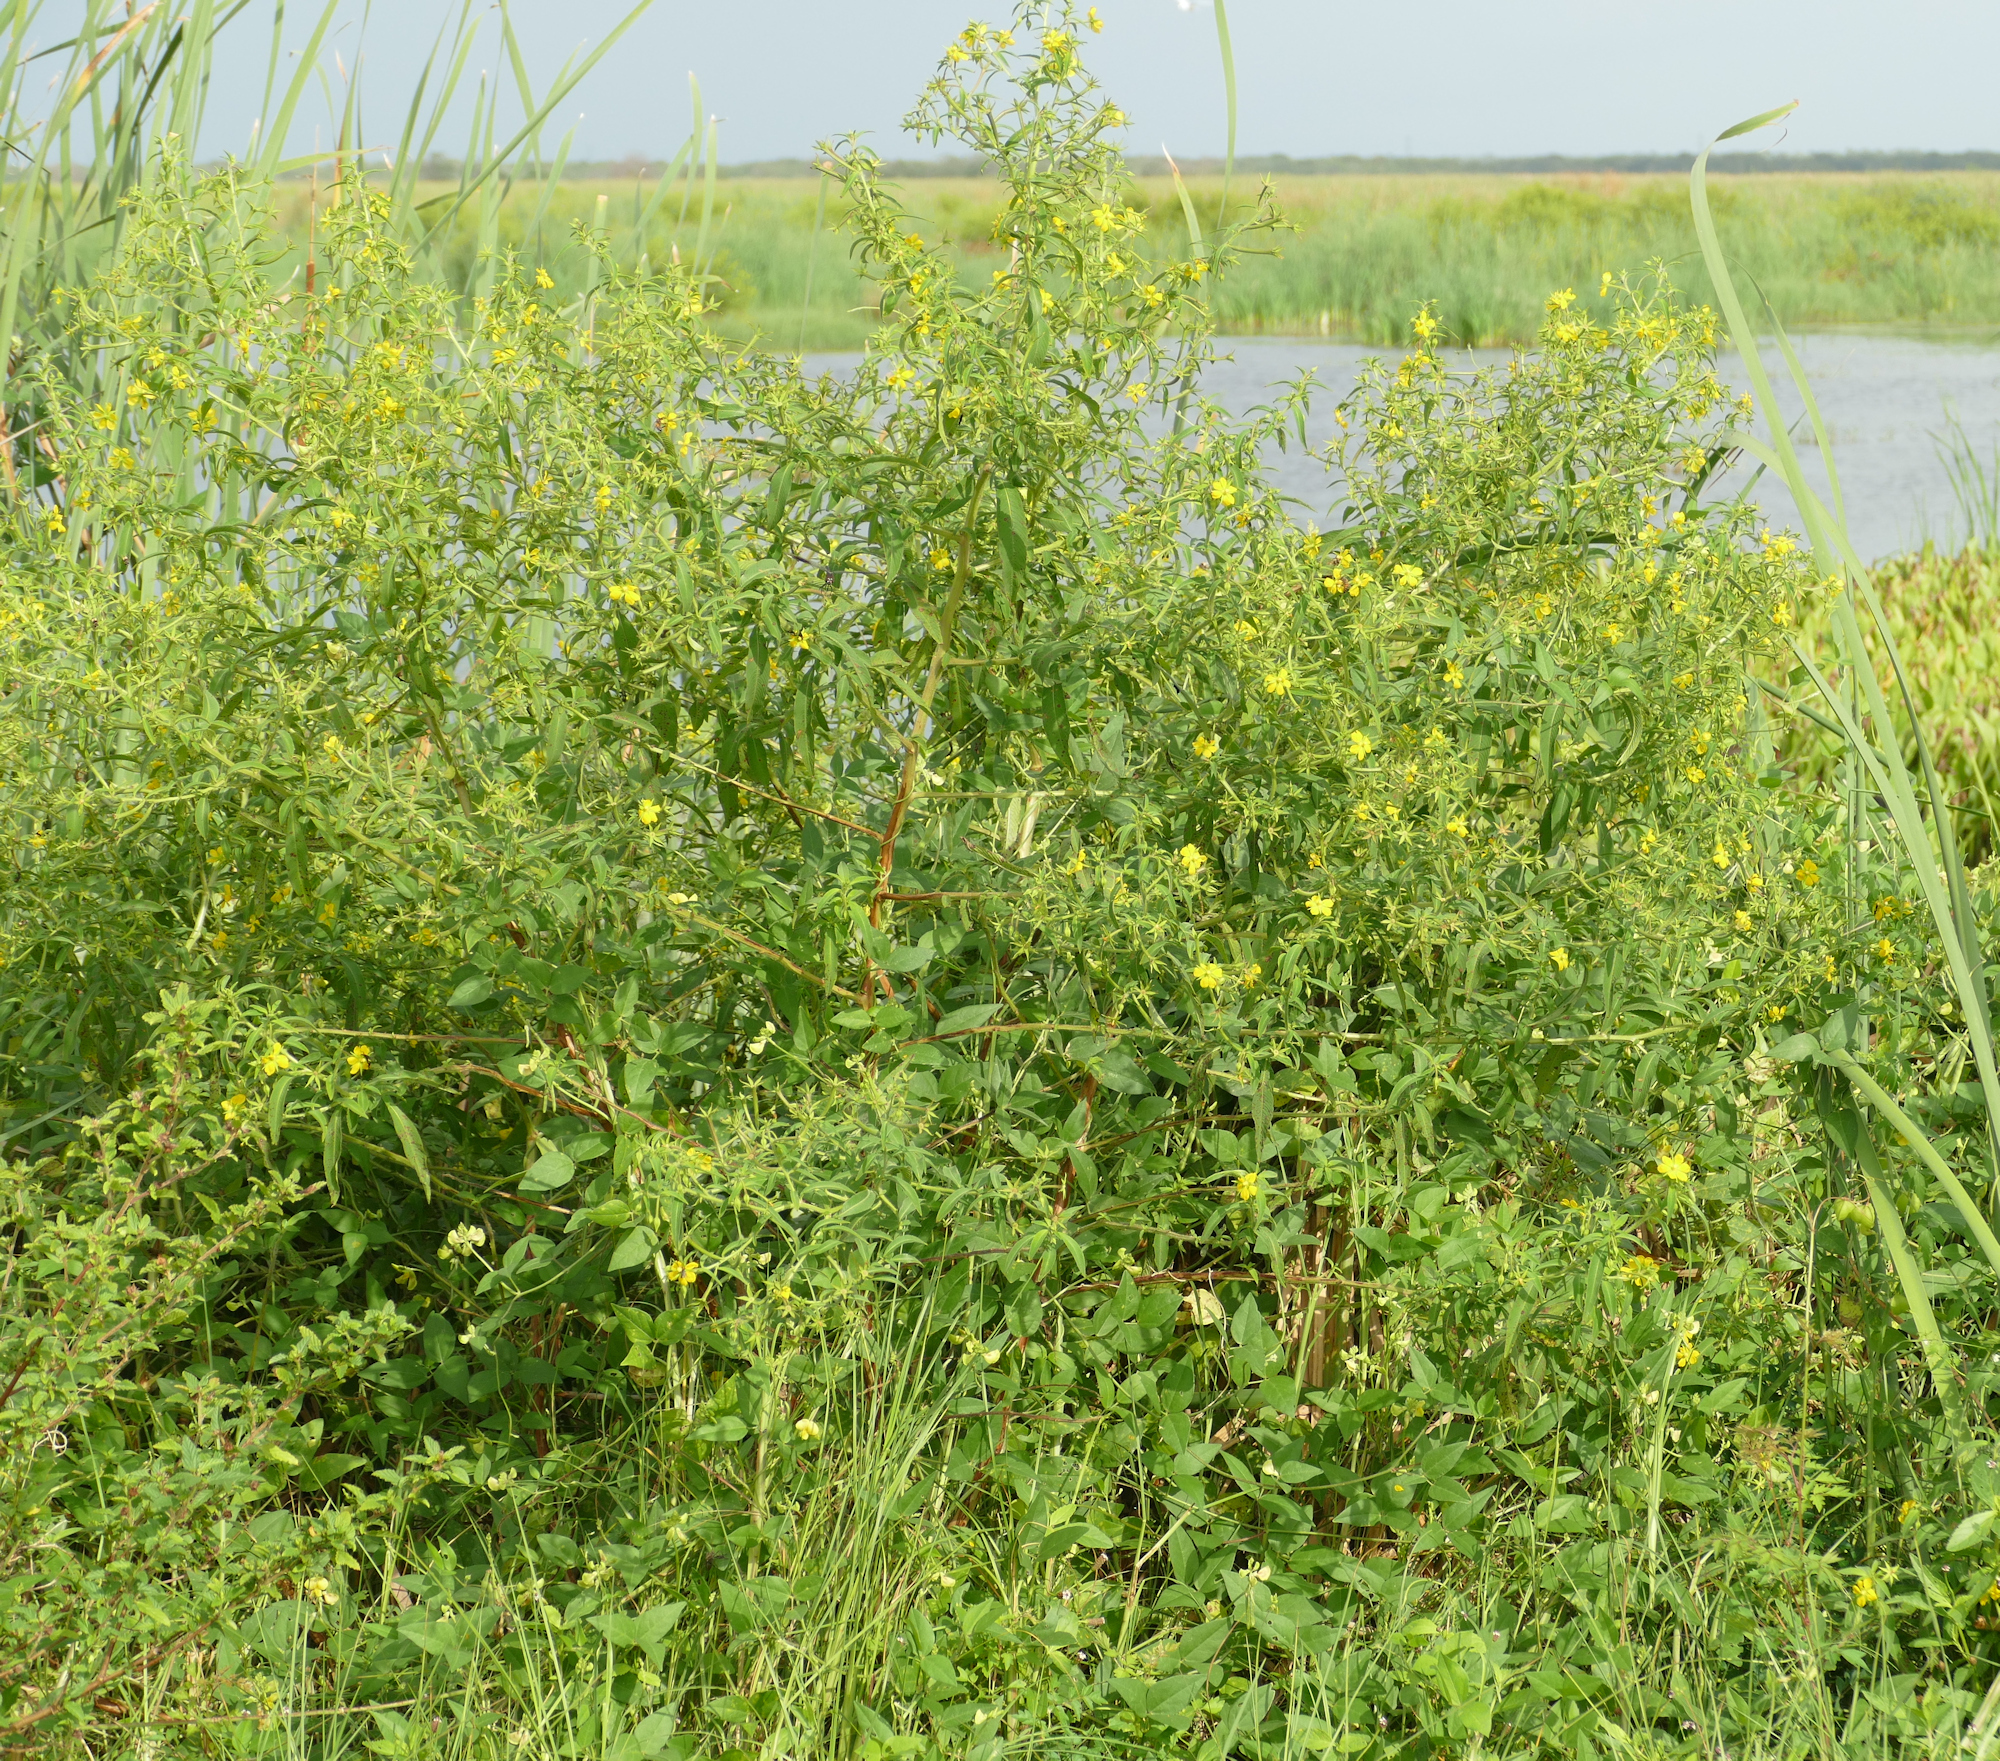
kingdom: Plantae
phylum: Tracheophyta
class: Magnoliopsida
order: Myrtales
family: Onagraceae
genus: Ludwigia
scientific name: Ludwigia leptocarpa
